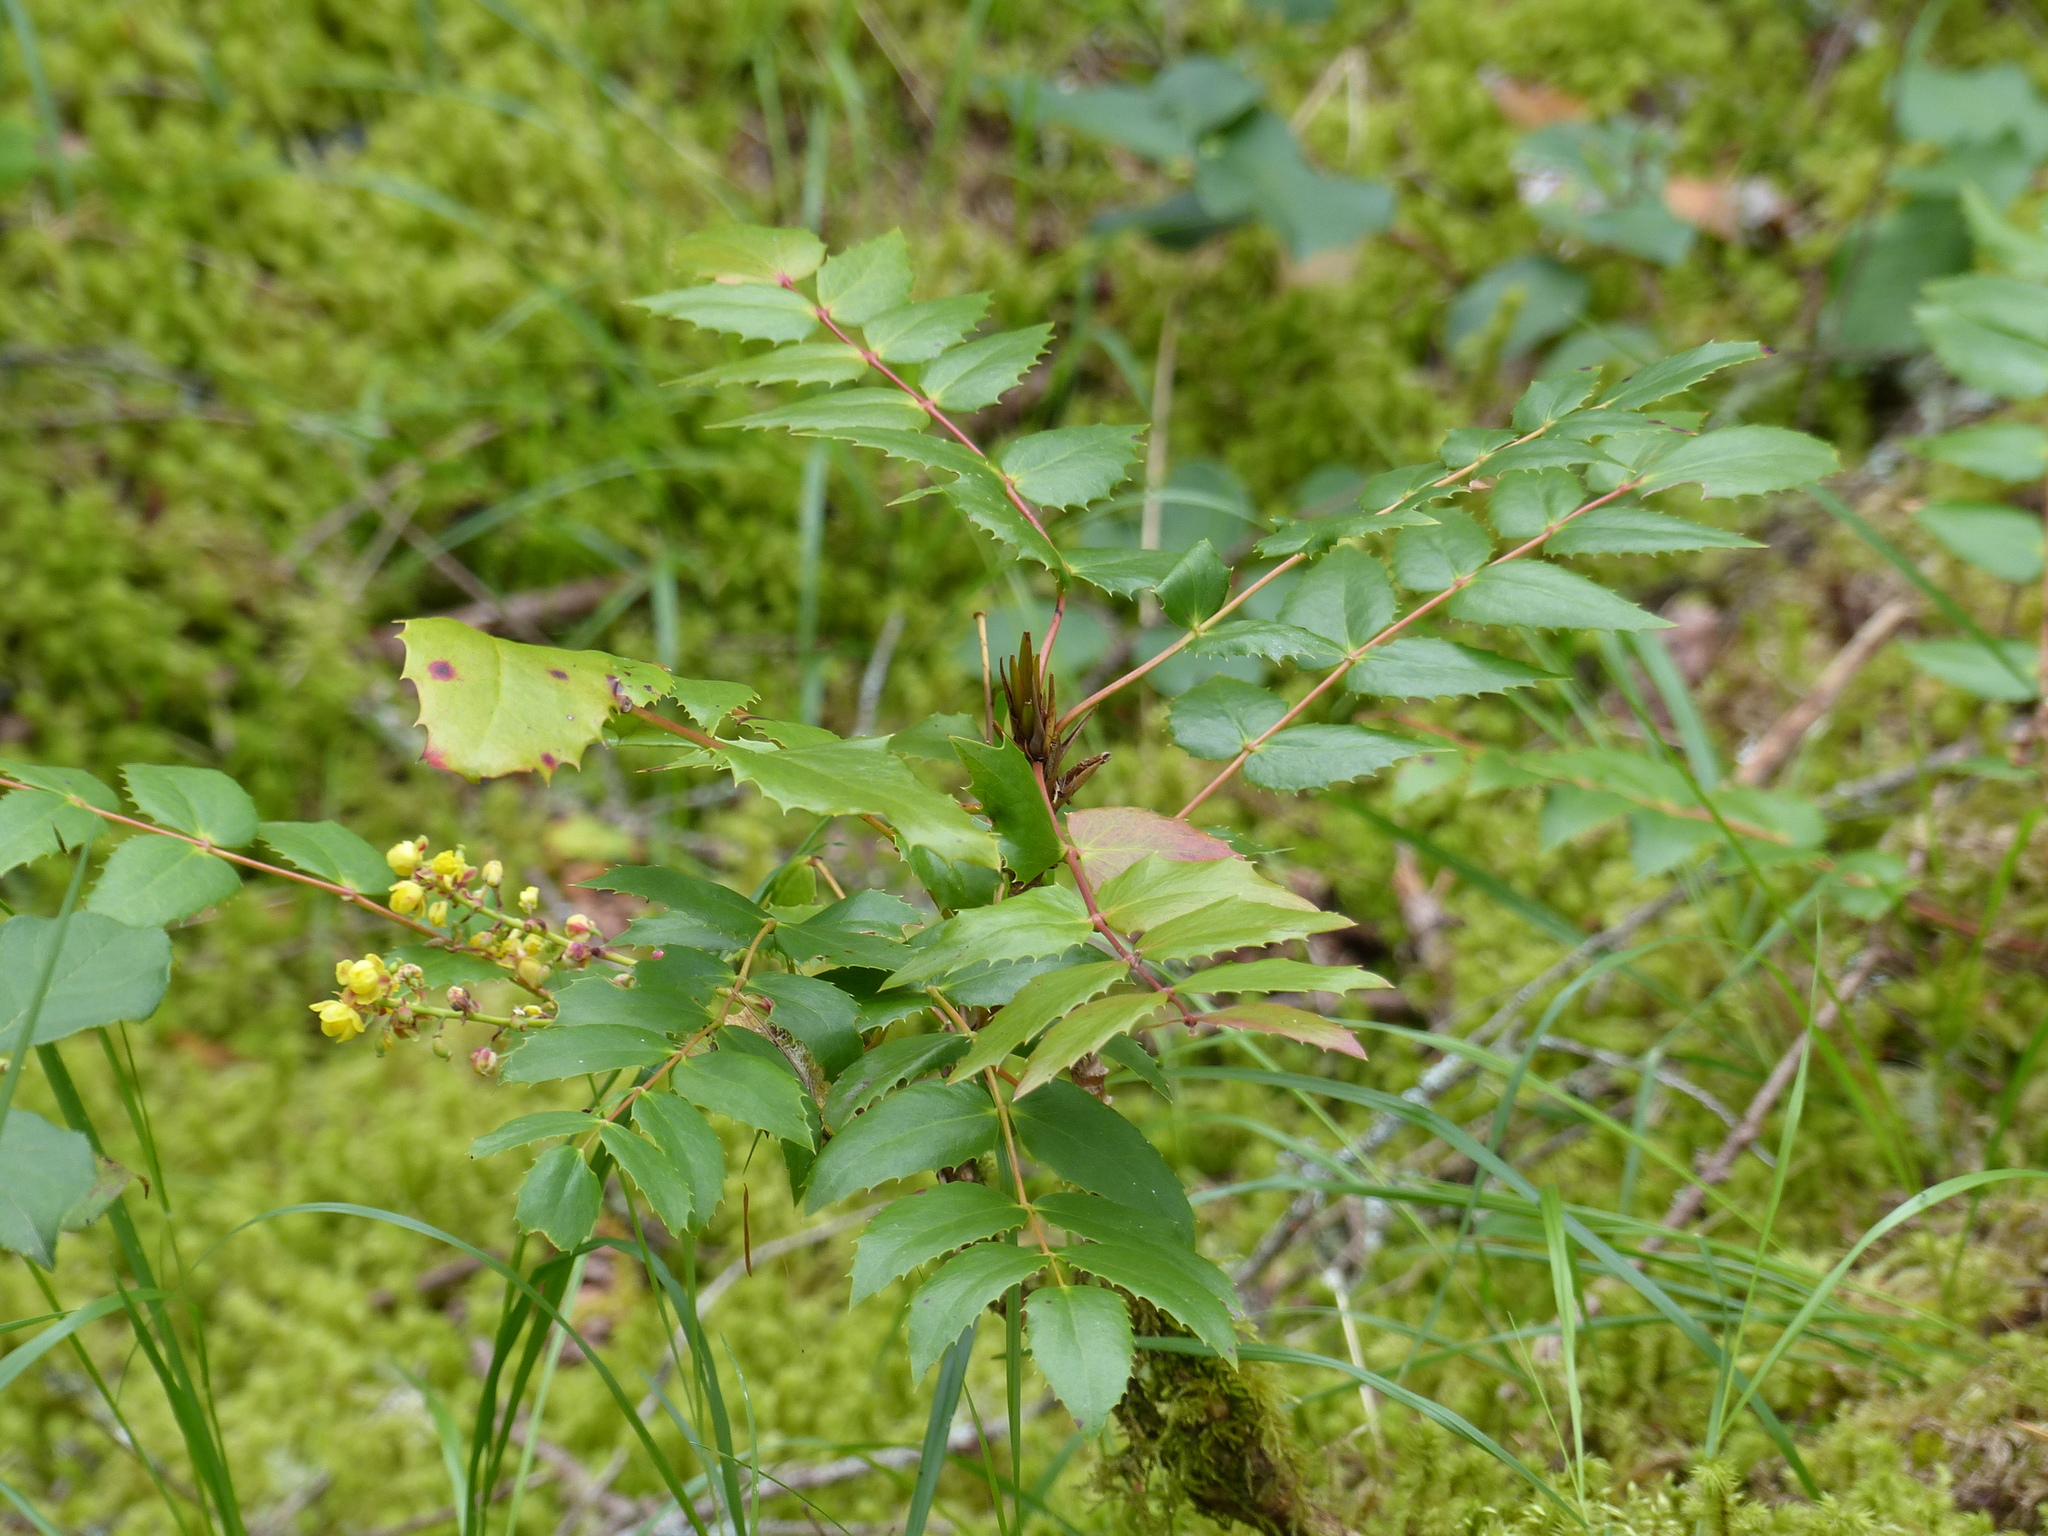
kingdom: Plantae
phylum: Tracheophyta
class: Magnoliopsida
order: Ranunculales
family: Berberidaceae
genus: Mahonia
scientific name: Mahonia nervosa
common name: Cascade oregon-grape
